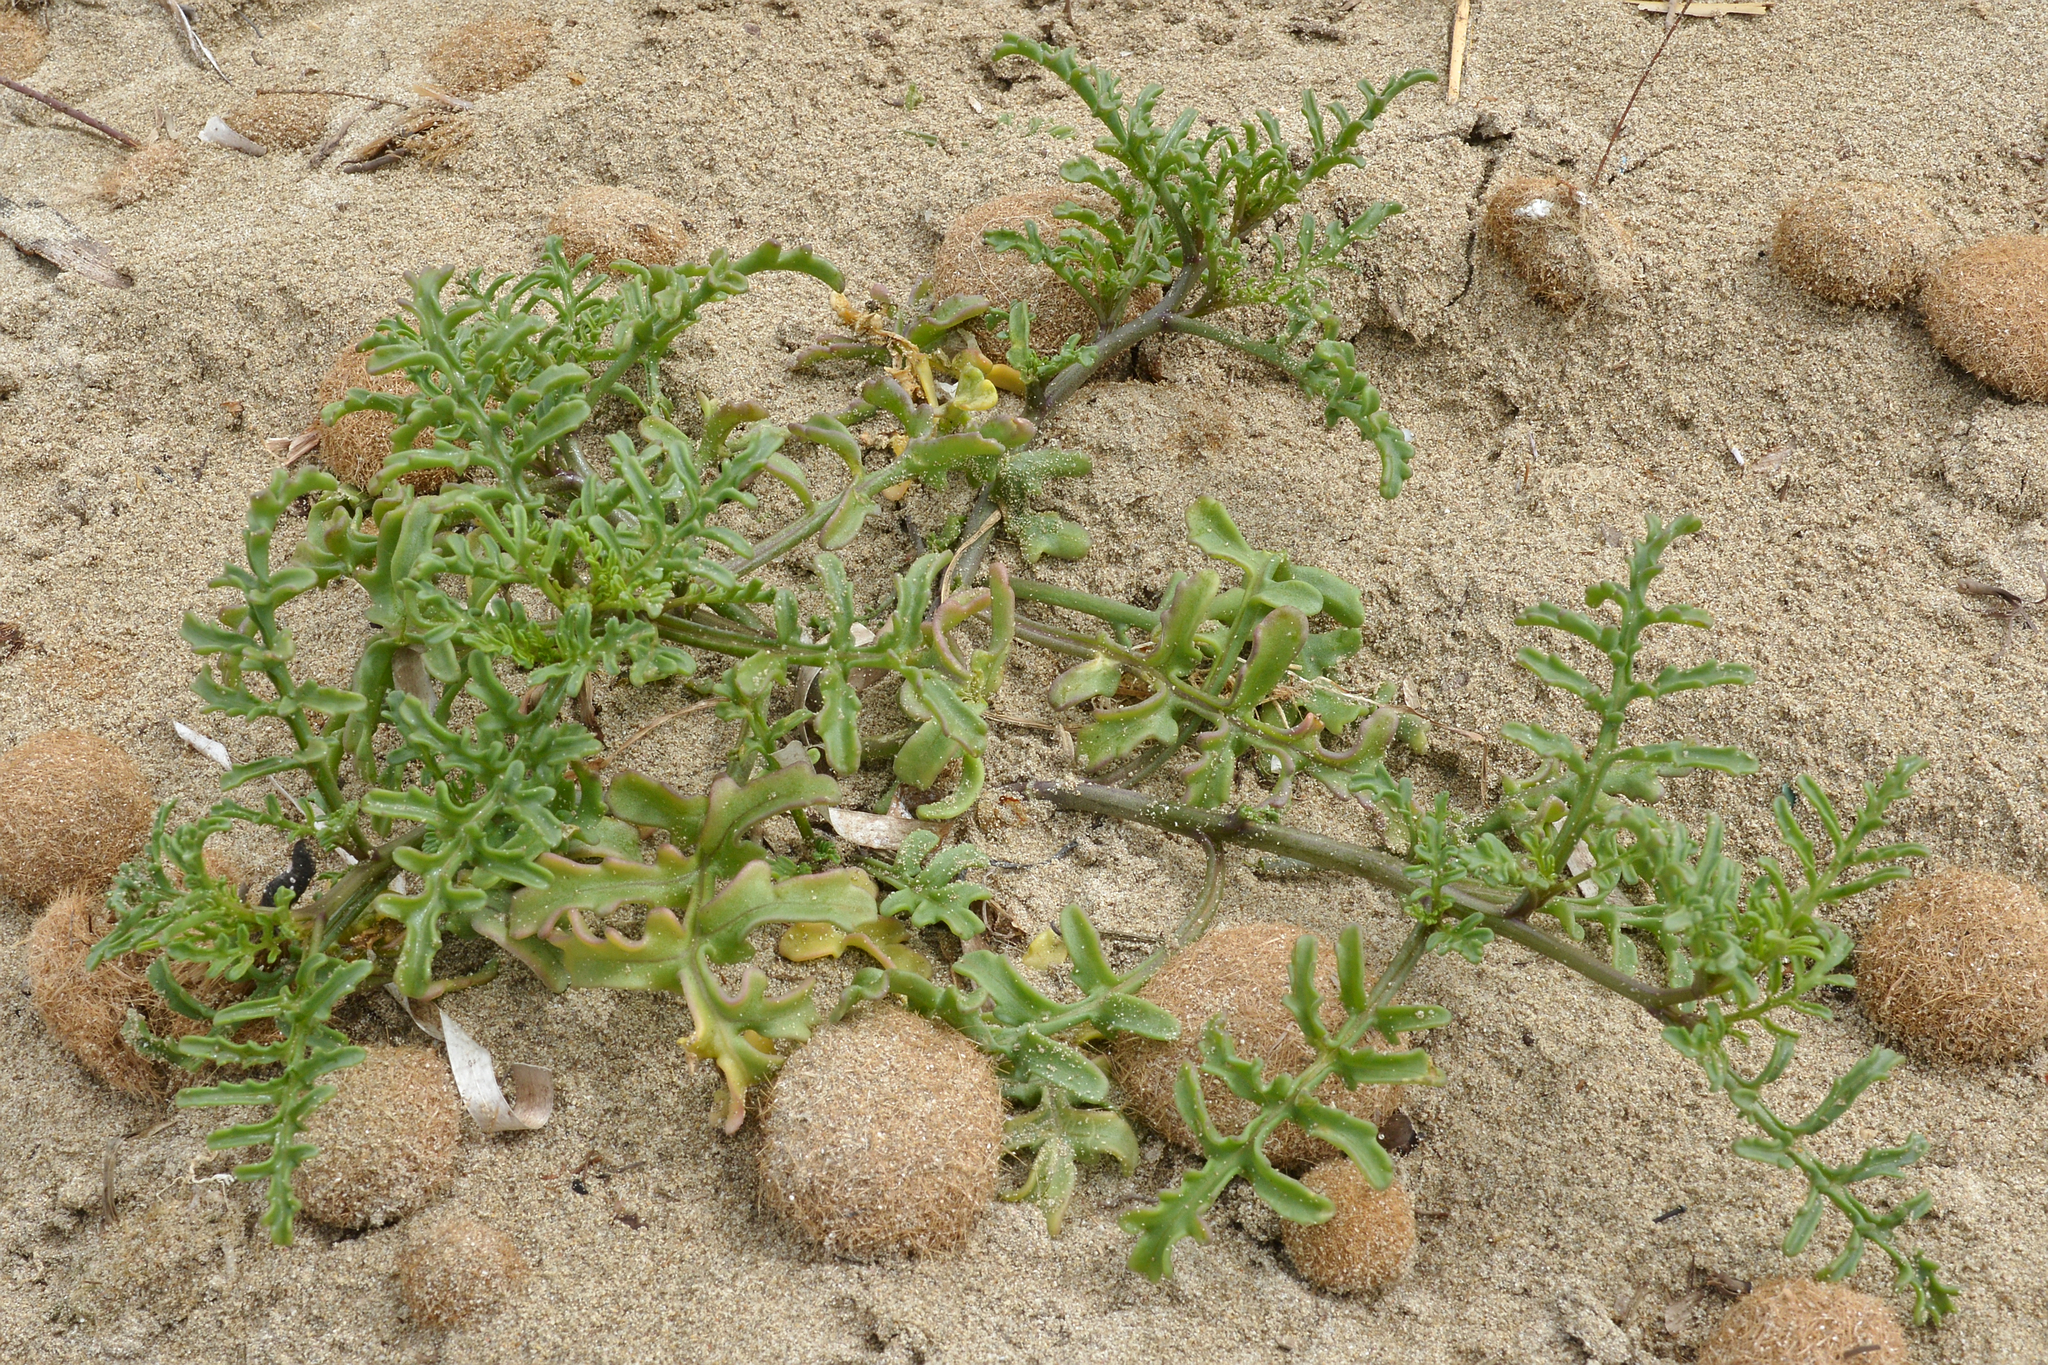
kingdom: Plantae
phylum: Tracheophyta
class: Magnoliopsida
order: Brassicales
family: Brassicaceae
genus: Cakile
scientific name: Cakile maritima
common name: Sea rocket
